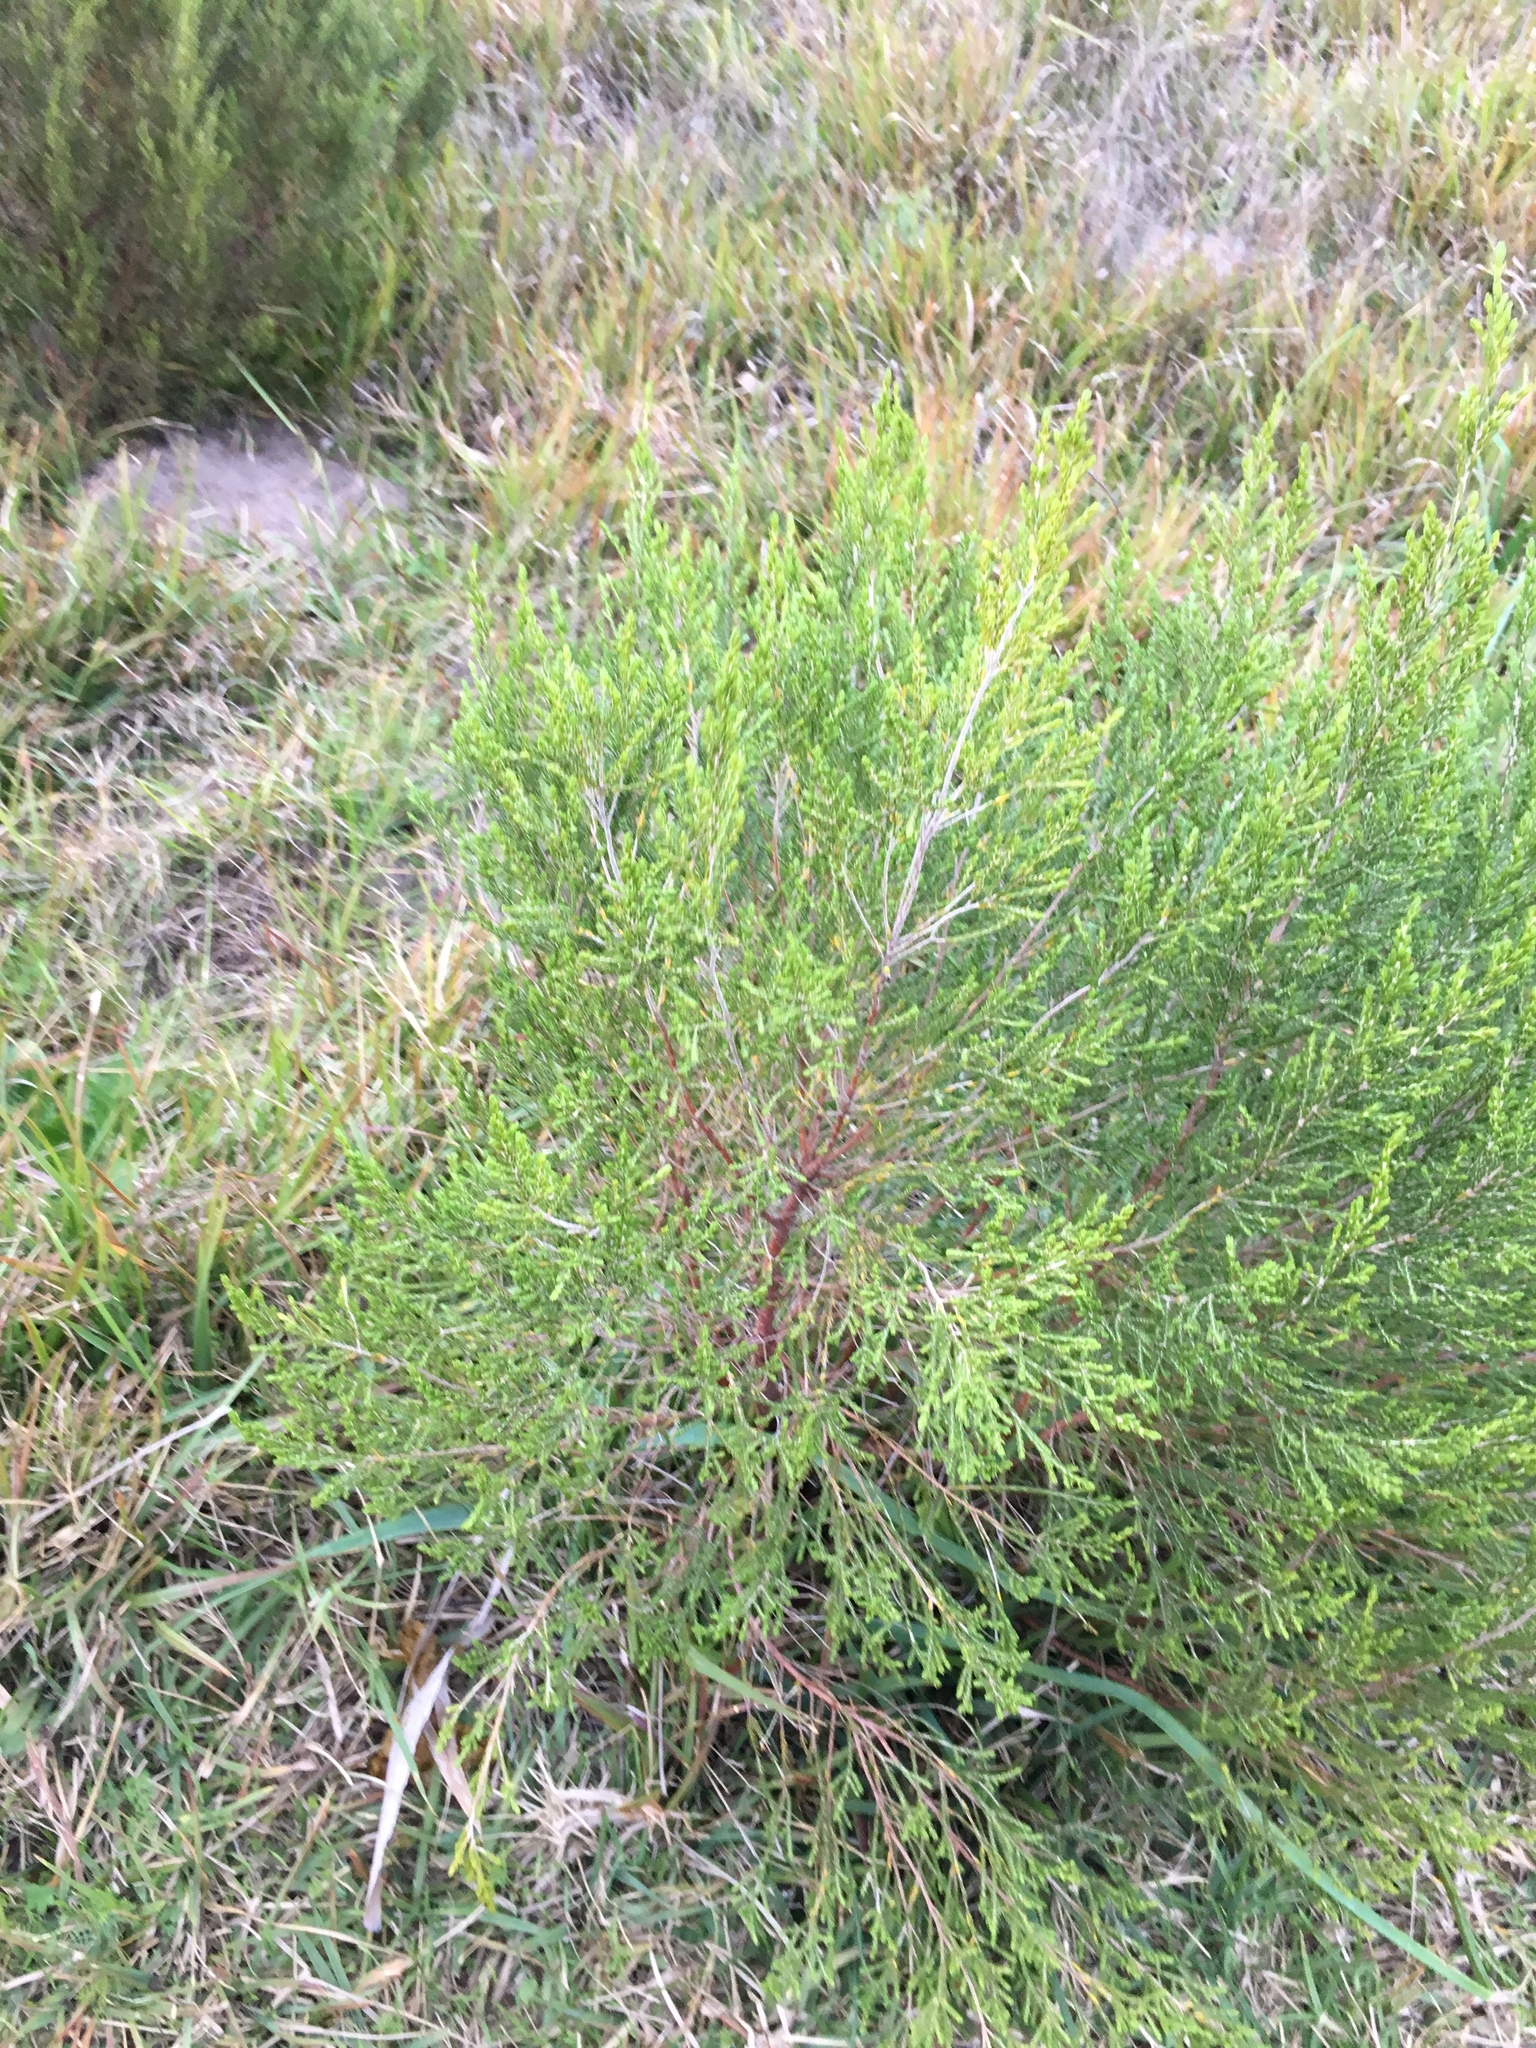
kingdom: Plantae
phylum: Tracheophyta
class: Magnoliopsida
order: Malvales
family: Thymelaeaceae
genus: Passerina
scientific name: Passerina corymbosa
